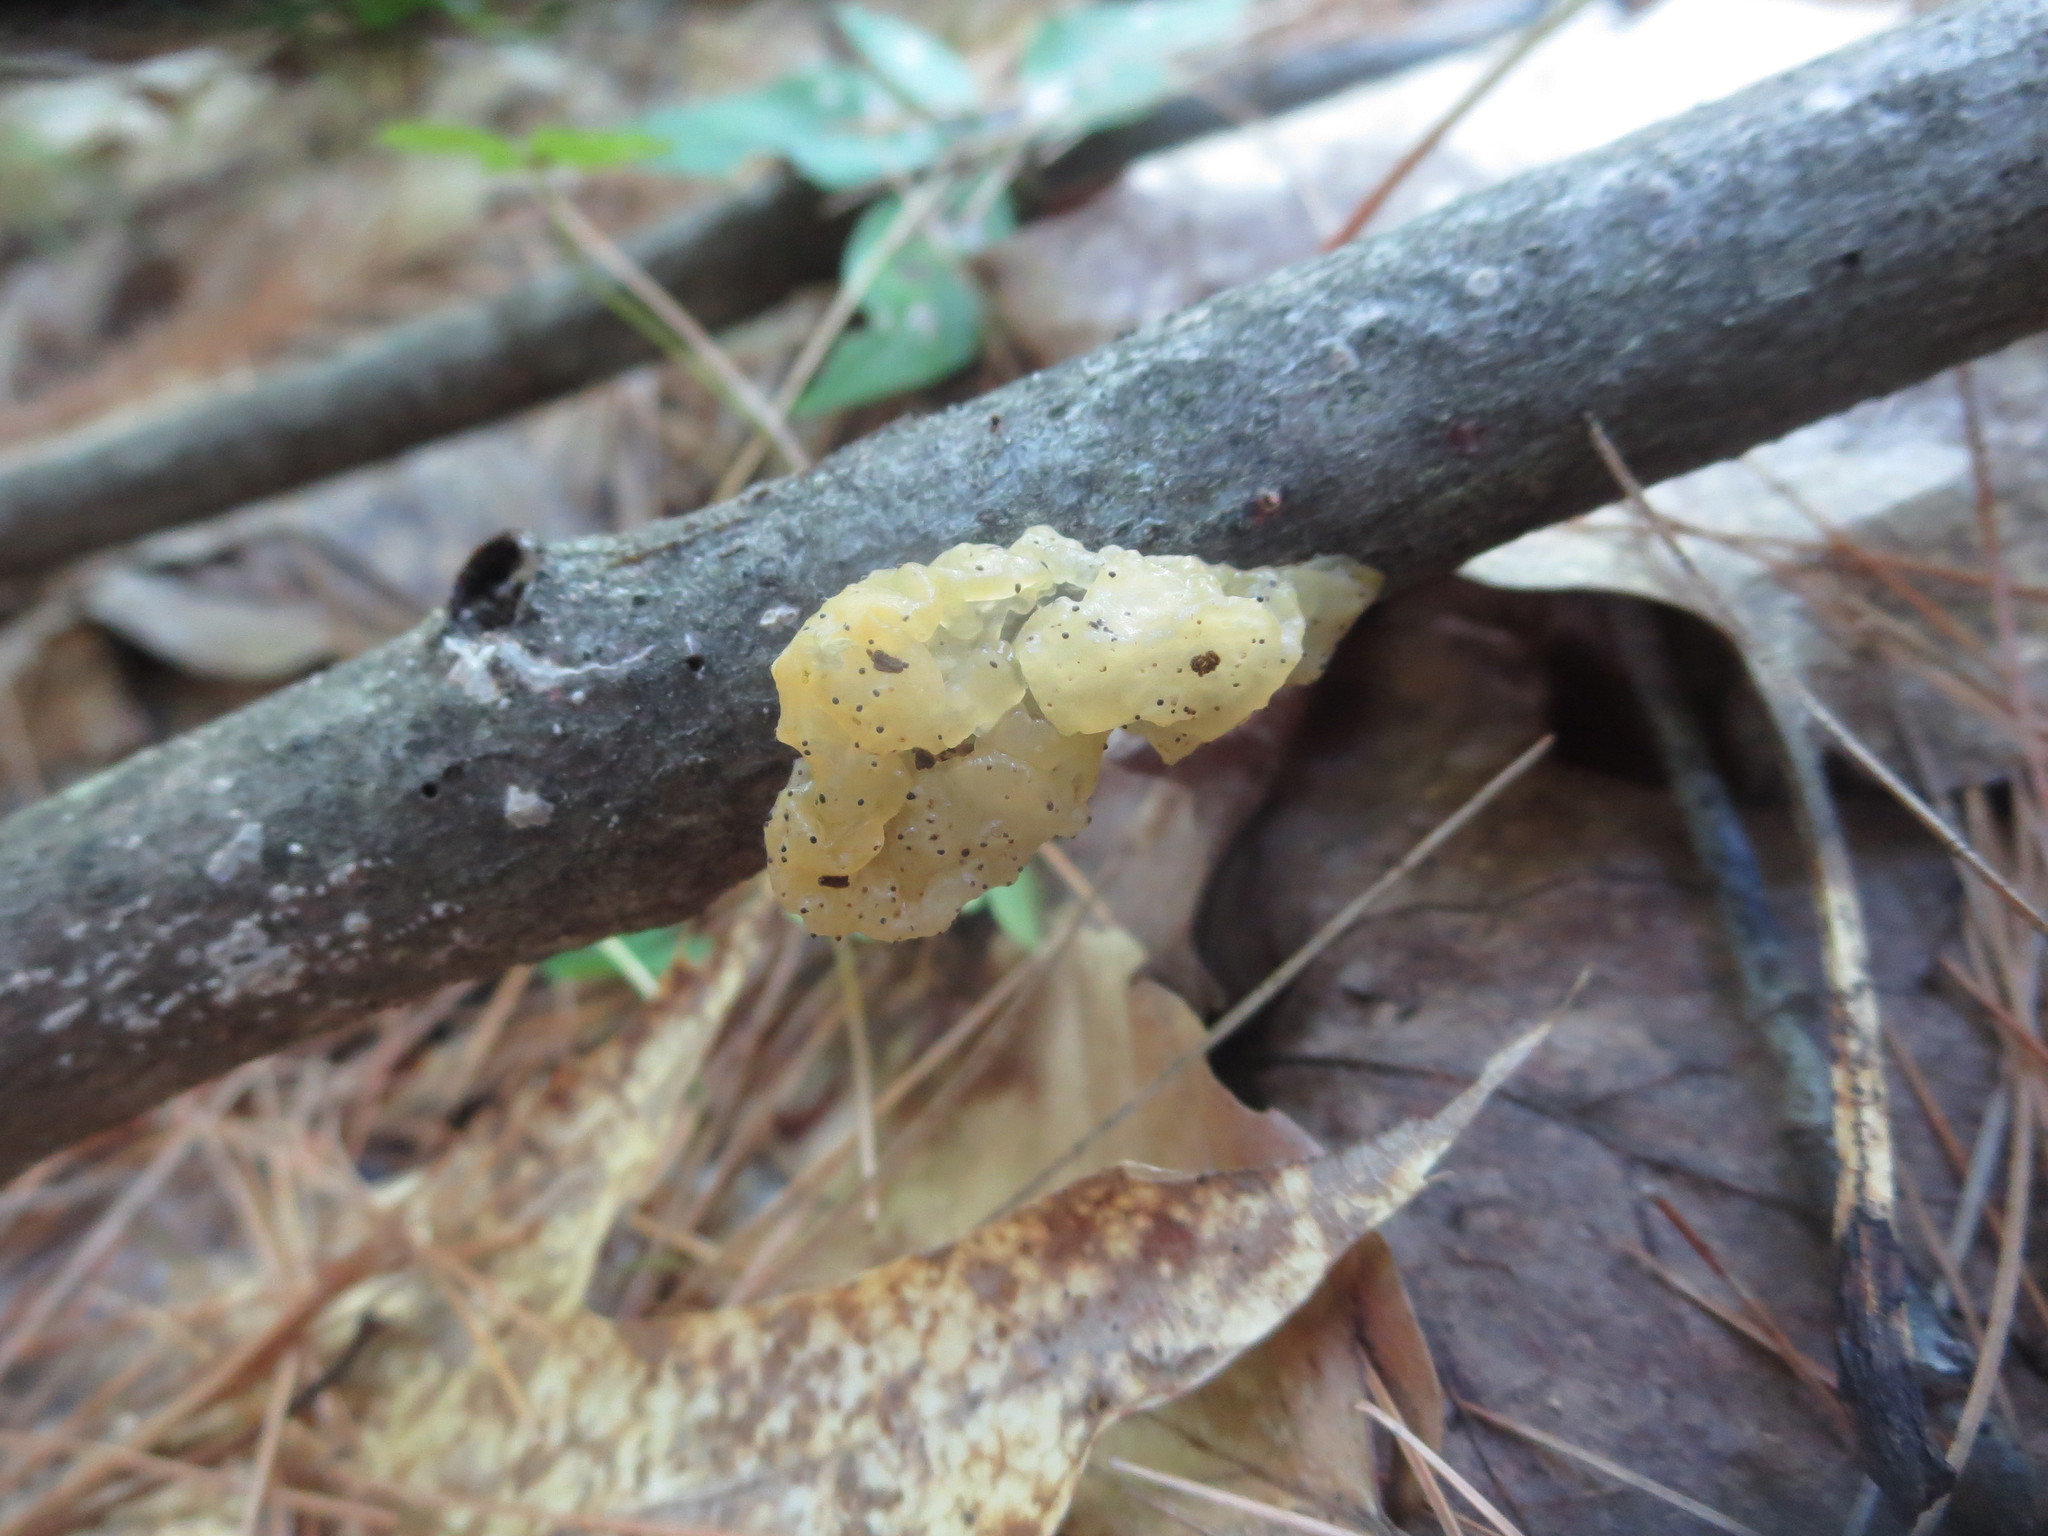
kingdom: Fungi
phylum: Basidiomycota
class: Agaricomycetes
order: Auriculariales
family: Hyaloriaceae
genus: Myxarium
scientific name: Myxarium nucleatum
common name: Crystal brain fungus
